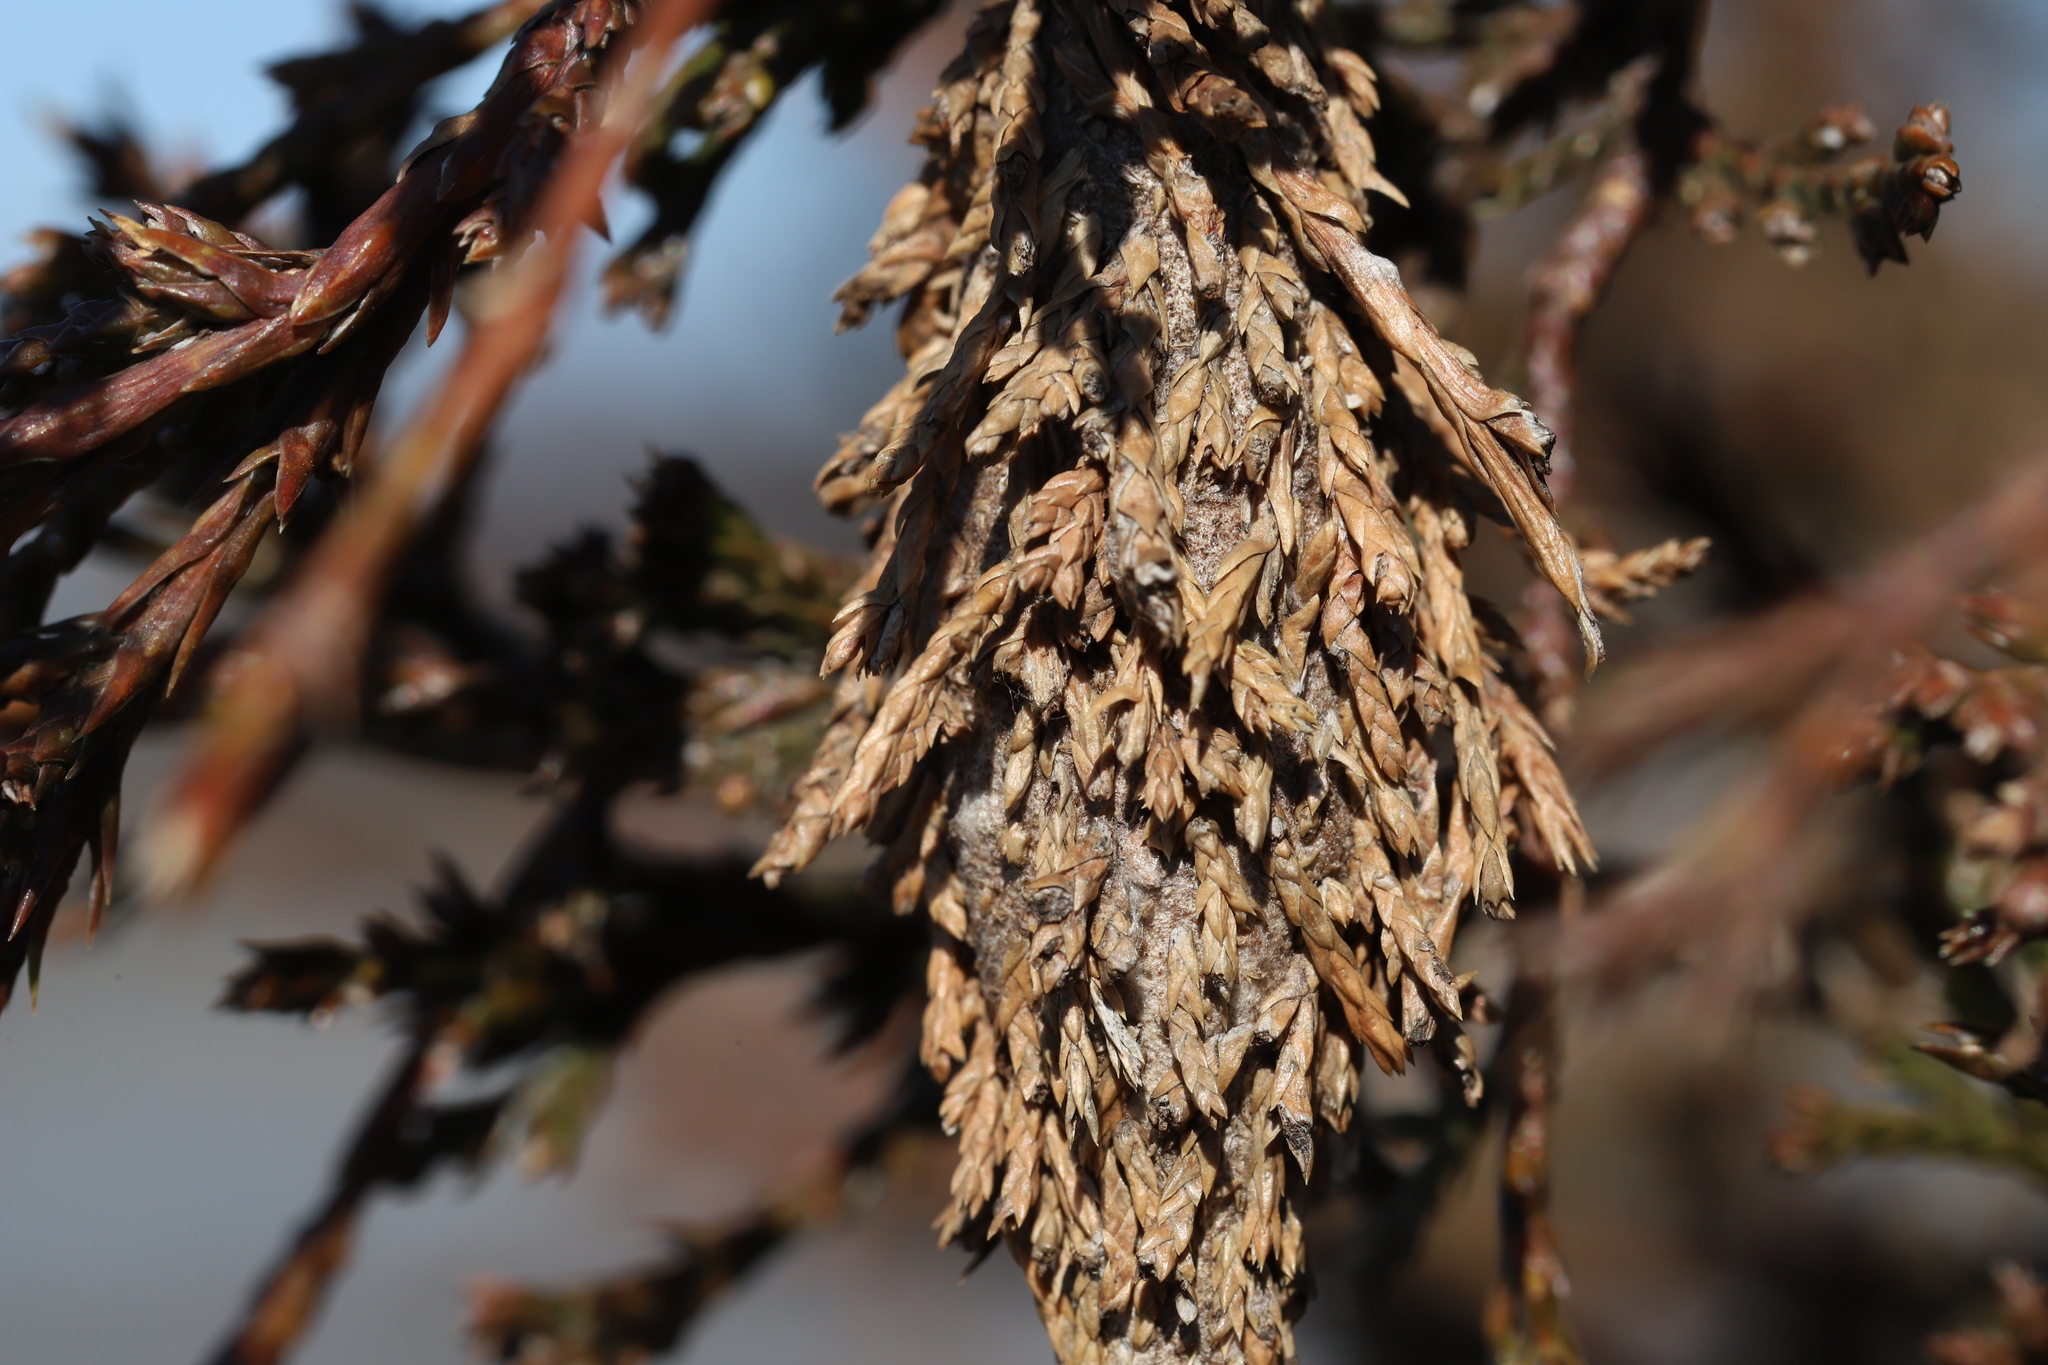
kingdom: Animalia
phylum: Arthropoda
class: Insecta
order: Lepidoptera
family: Psychidae
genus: Thyridopteryx
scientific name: Thyridopteryx ephemeraeformis
